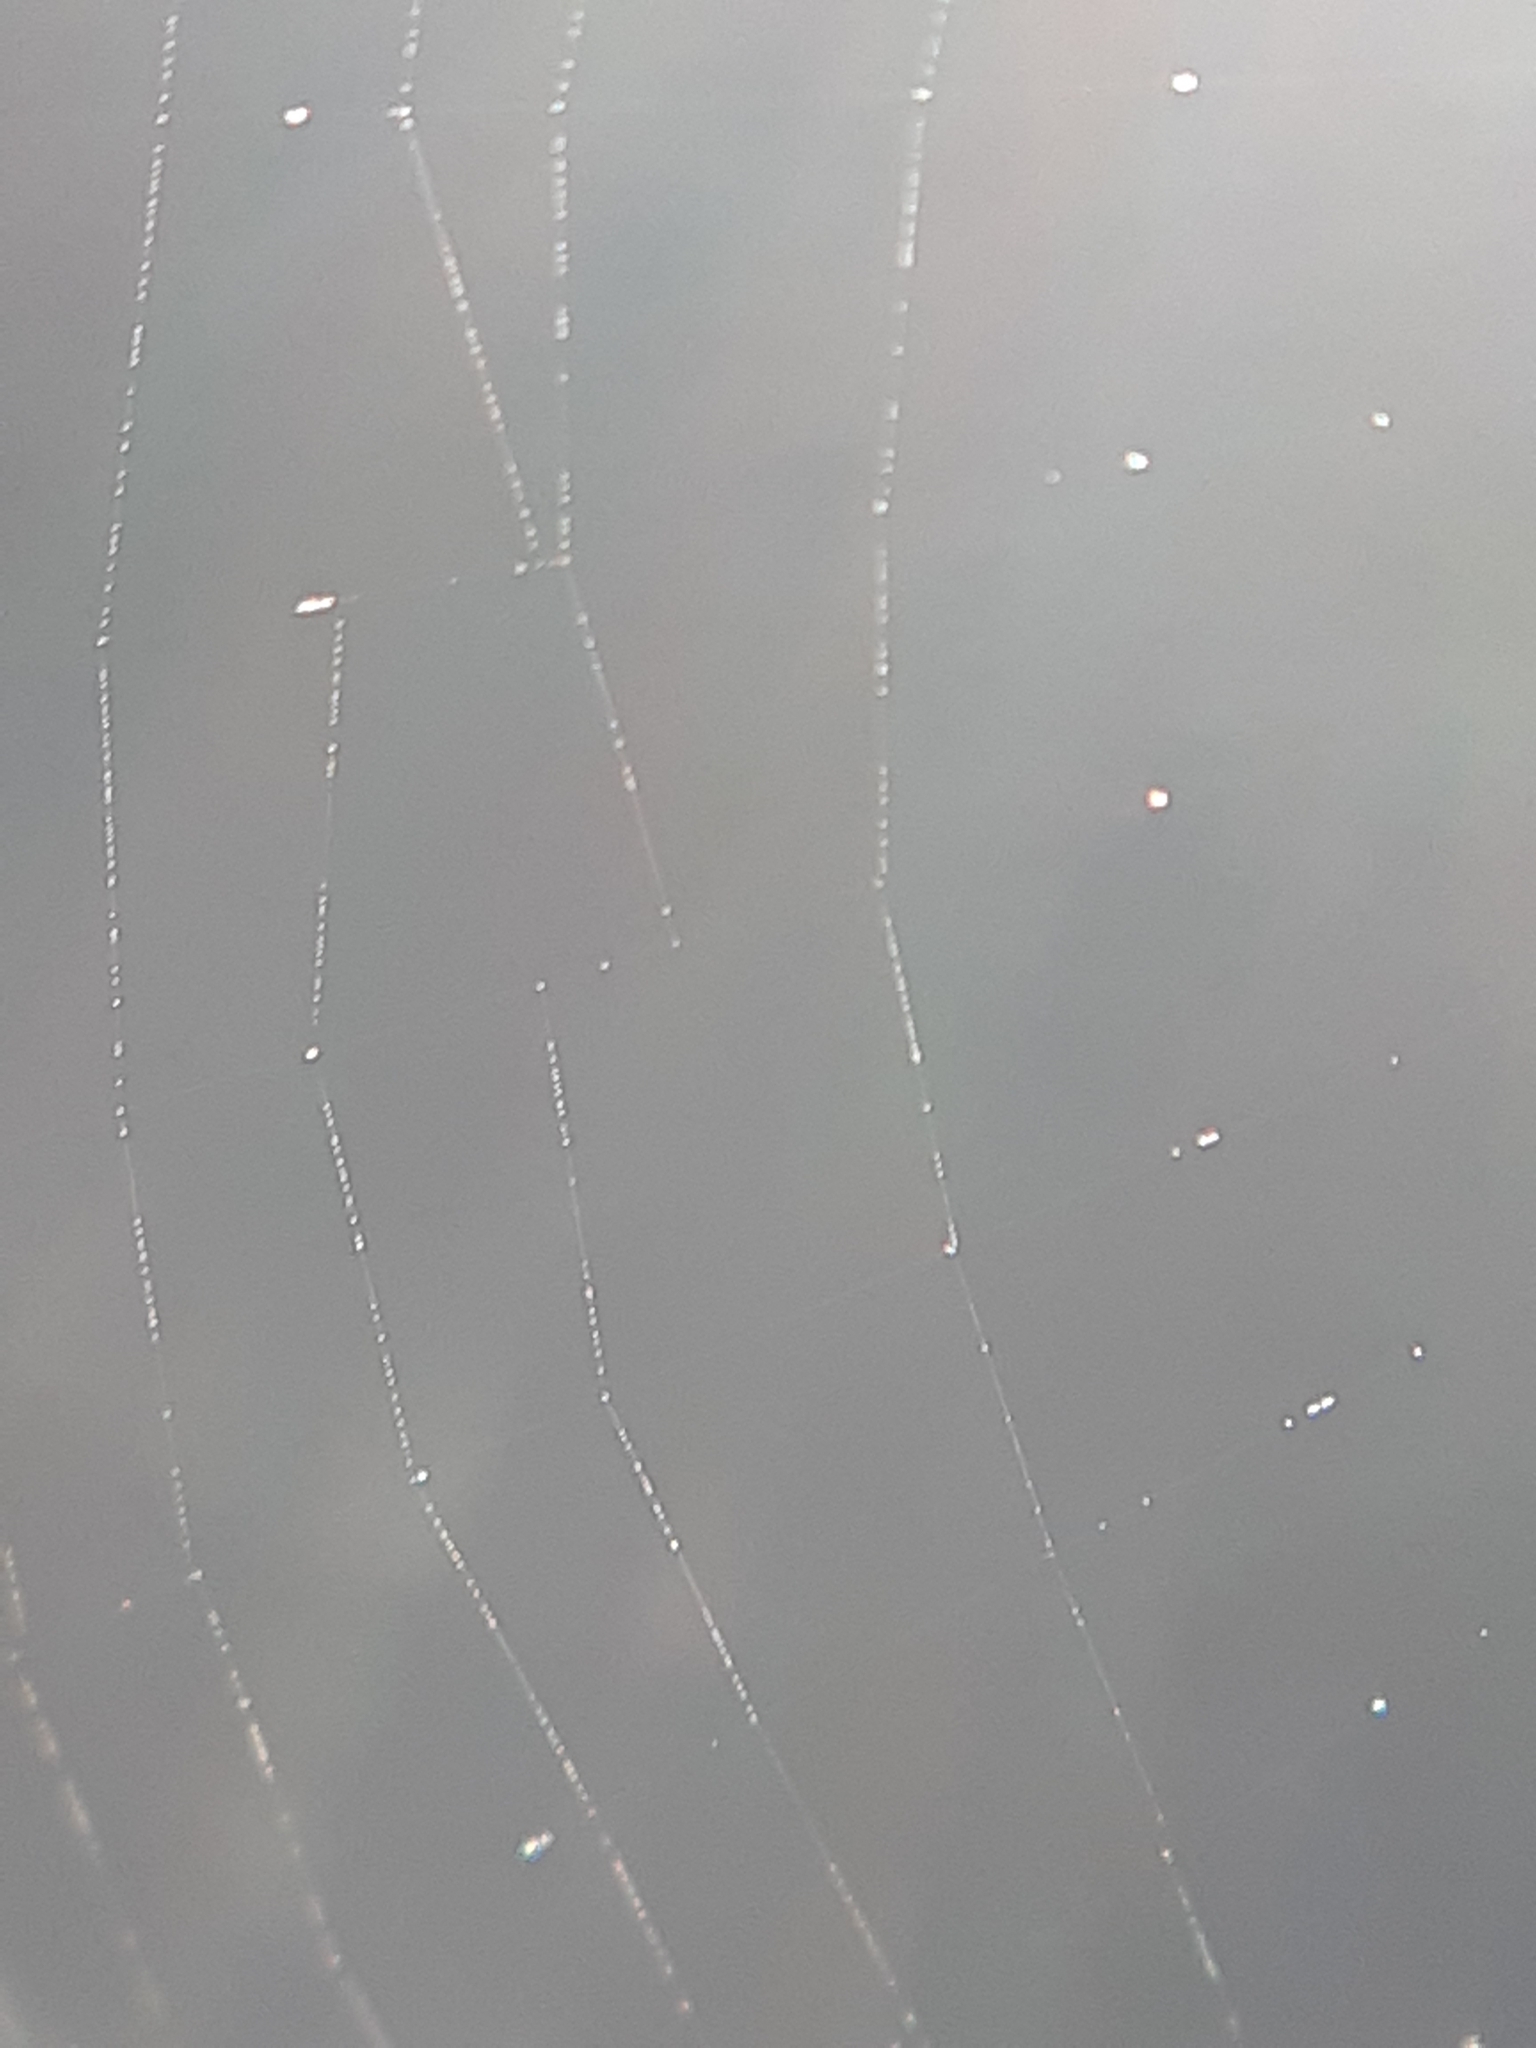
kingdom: Animalia
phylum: Arthropoda
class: Arachnida
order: Araneae
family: Araneidae
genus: Zilla
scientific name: Zilla diodia
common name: Zilla diodia
